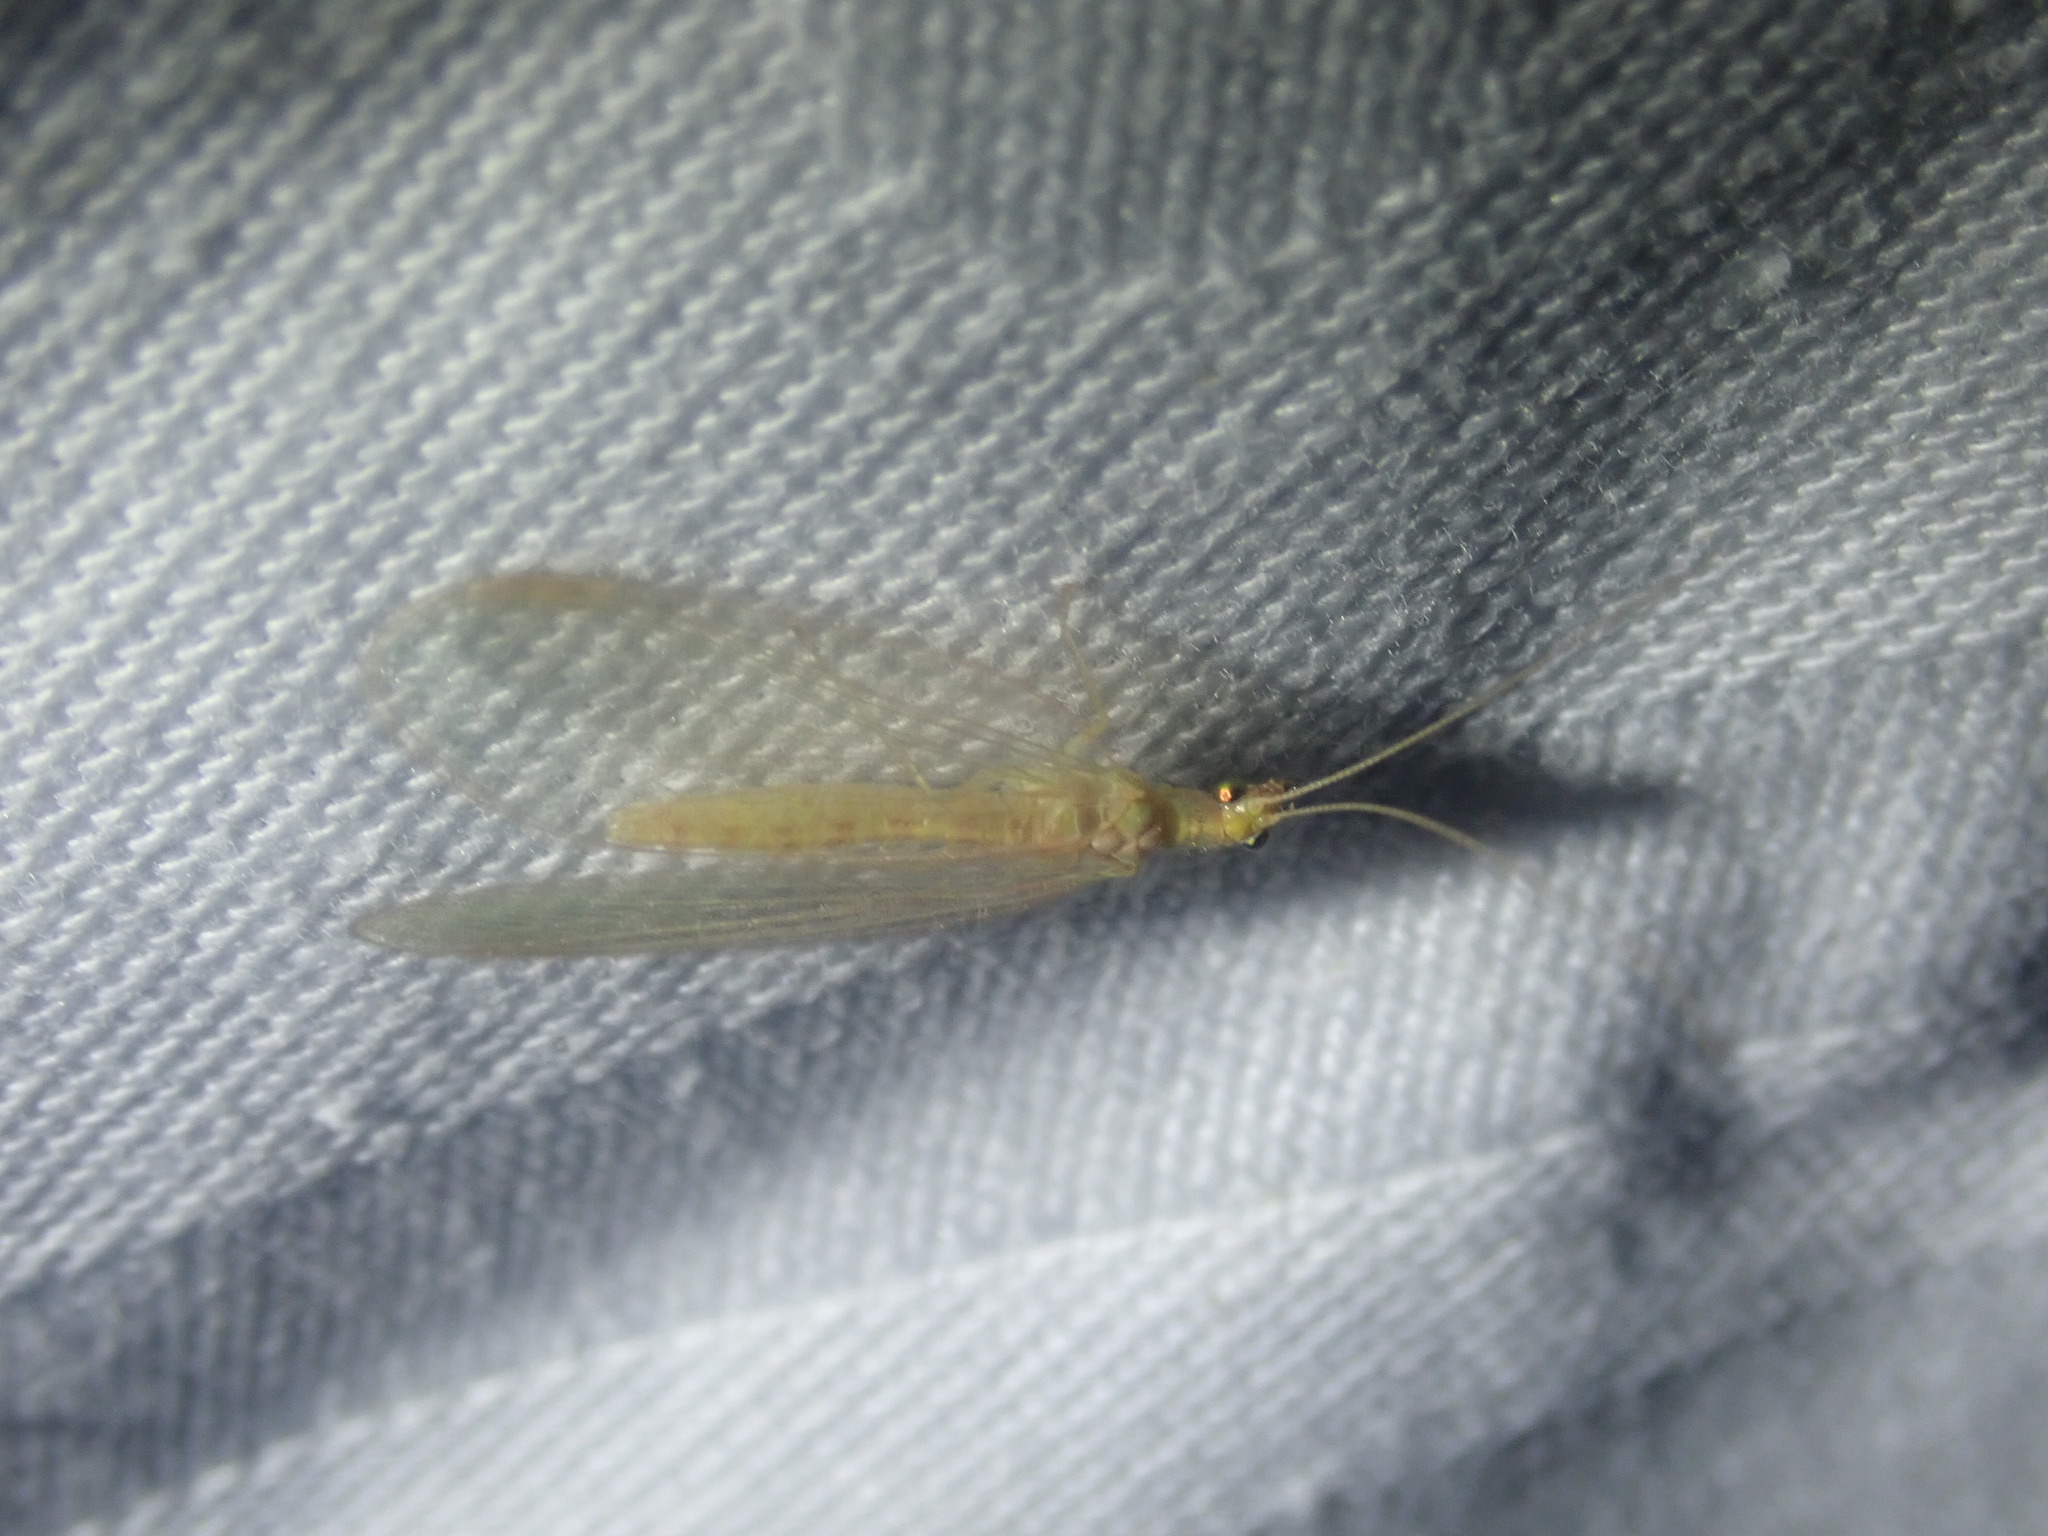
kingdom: Animalia
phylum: Arthropoda
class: Insecta
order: Neuroptera
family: Chrysopidae
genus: Chrysoperla
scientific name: Chrysoperla
